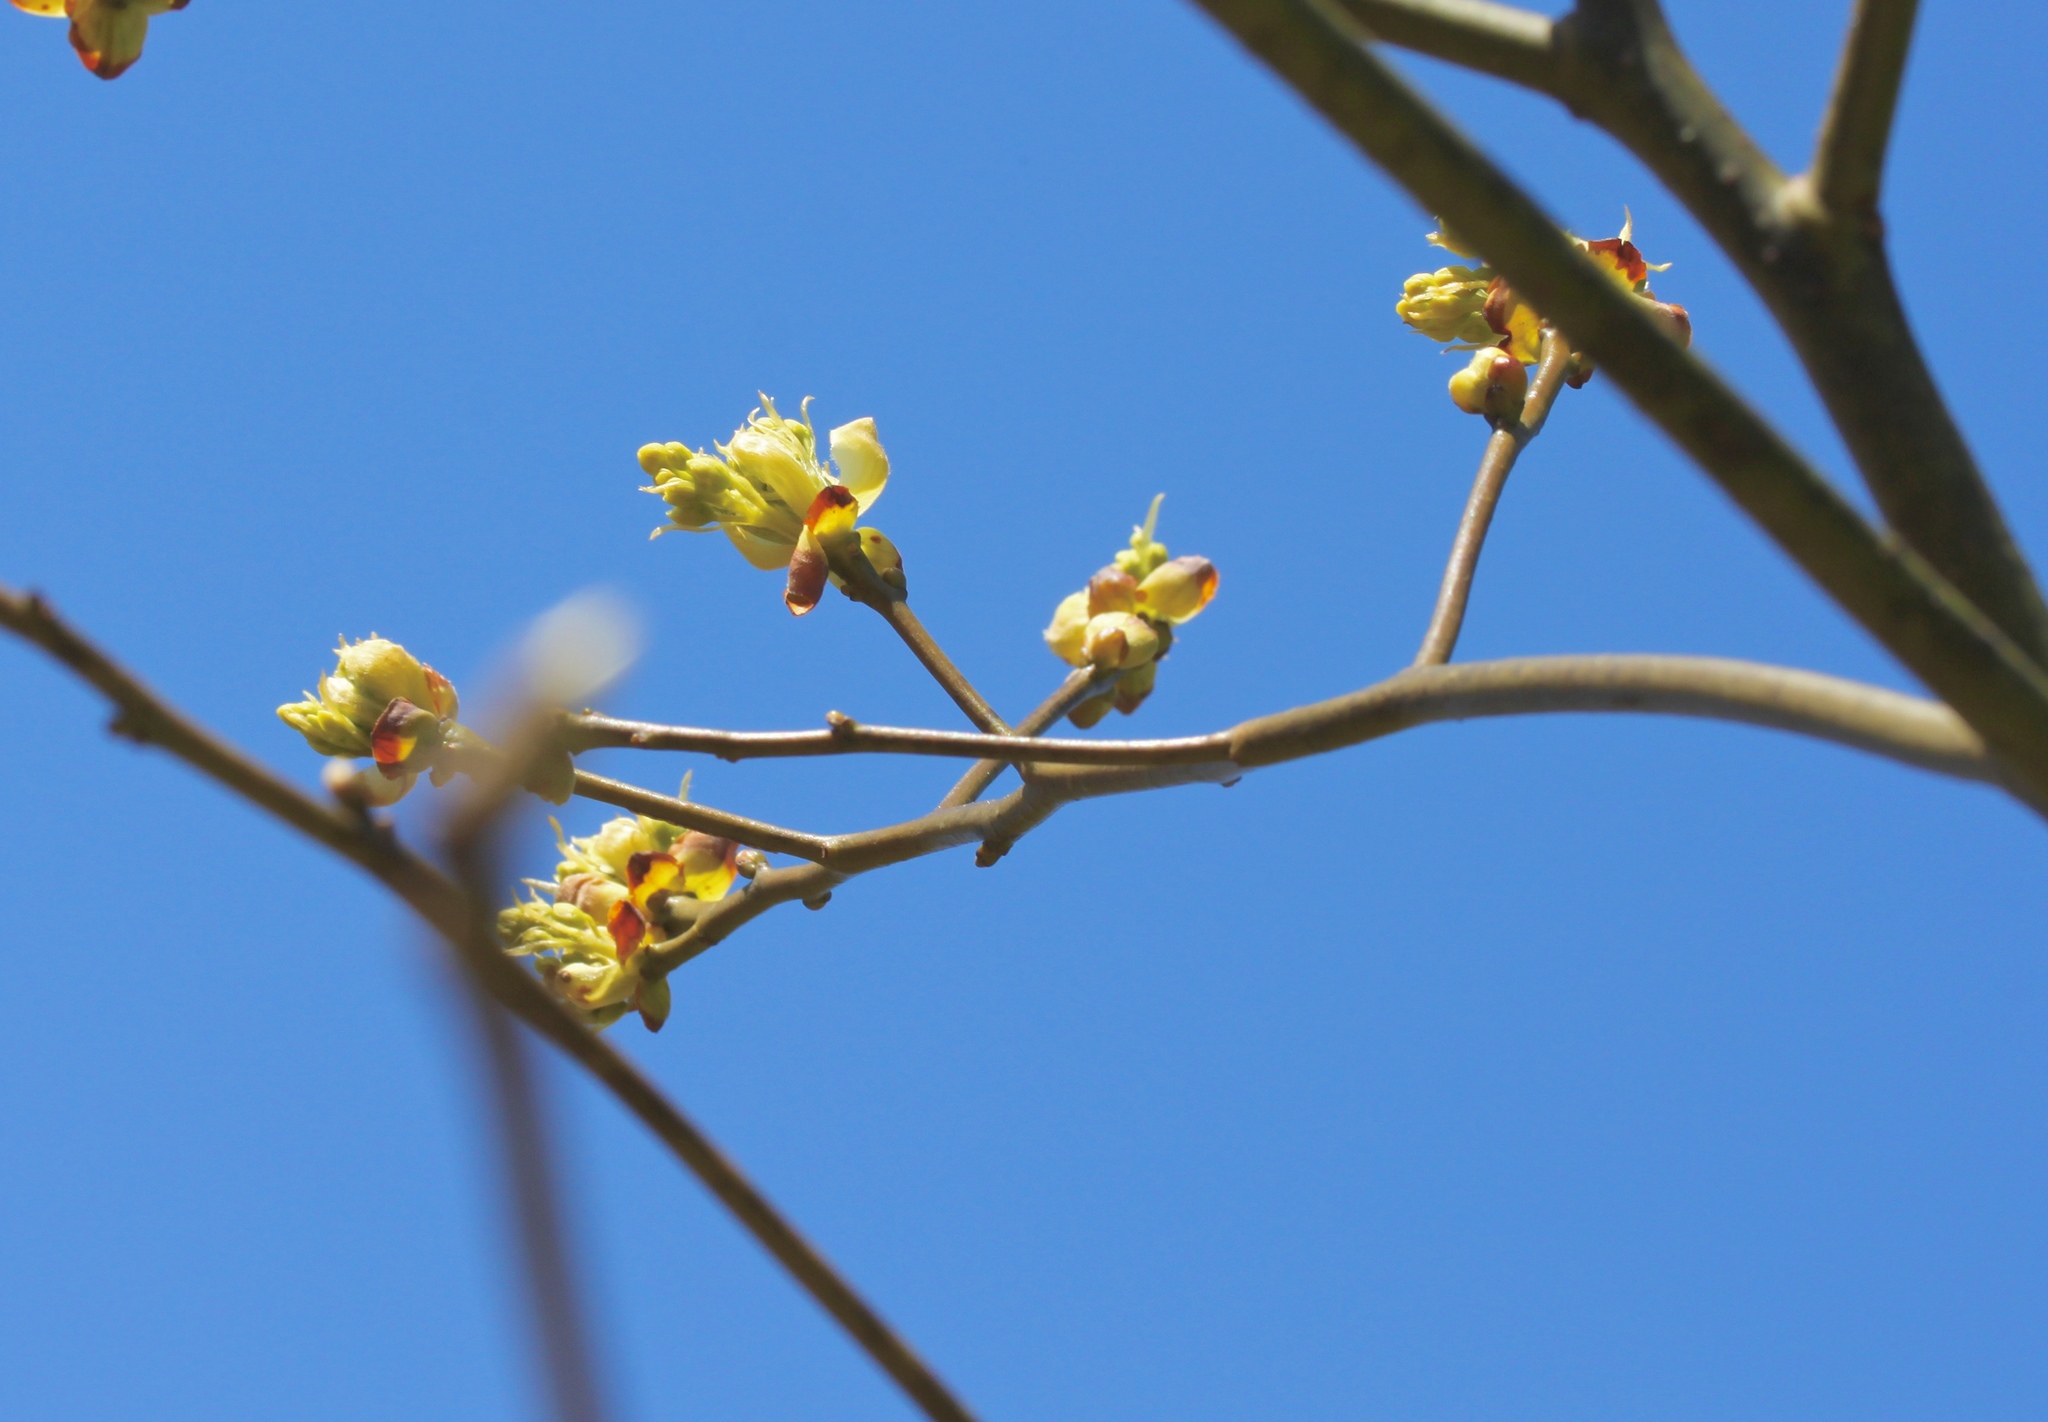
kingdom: Plantae
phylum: Tracheophyta
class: Magnoliopsida
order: Laurales
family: Lauraceae
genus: Sassafras
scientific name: Sassafras albidum
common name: Sassafras
